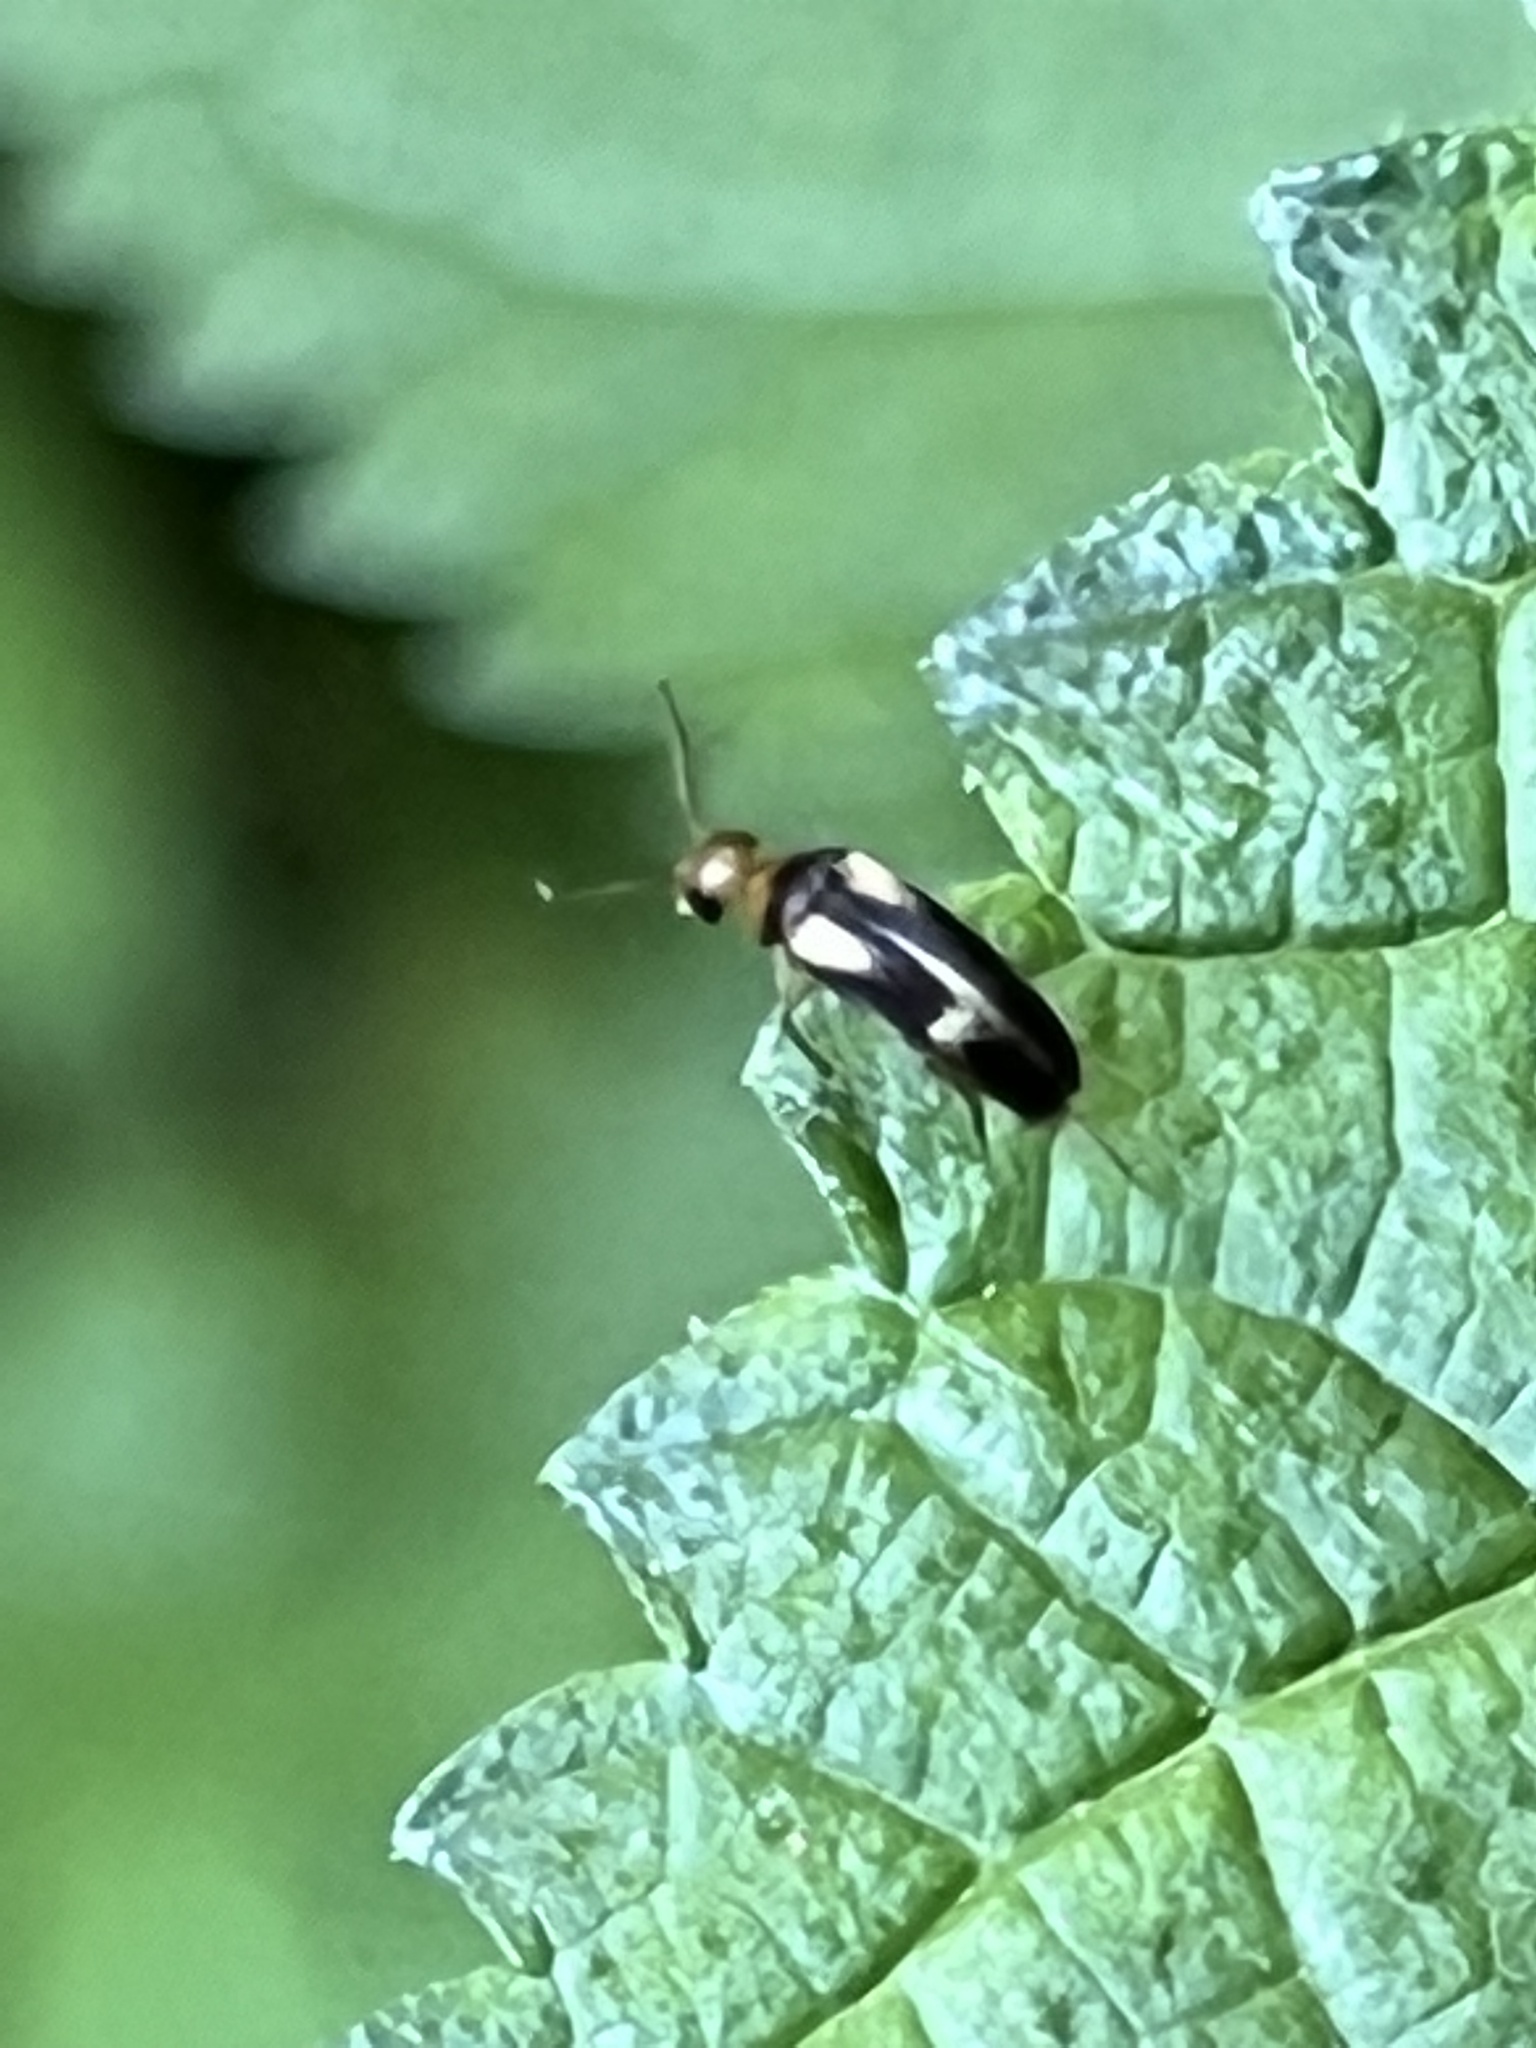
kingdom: Animalia
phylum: Arthropoda
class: Insecta
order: Coleoptera
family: Mordellidae
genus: Mordellistena
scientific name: Mordellistena ornata
